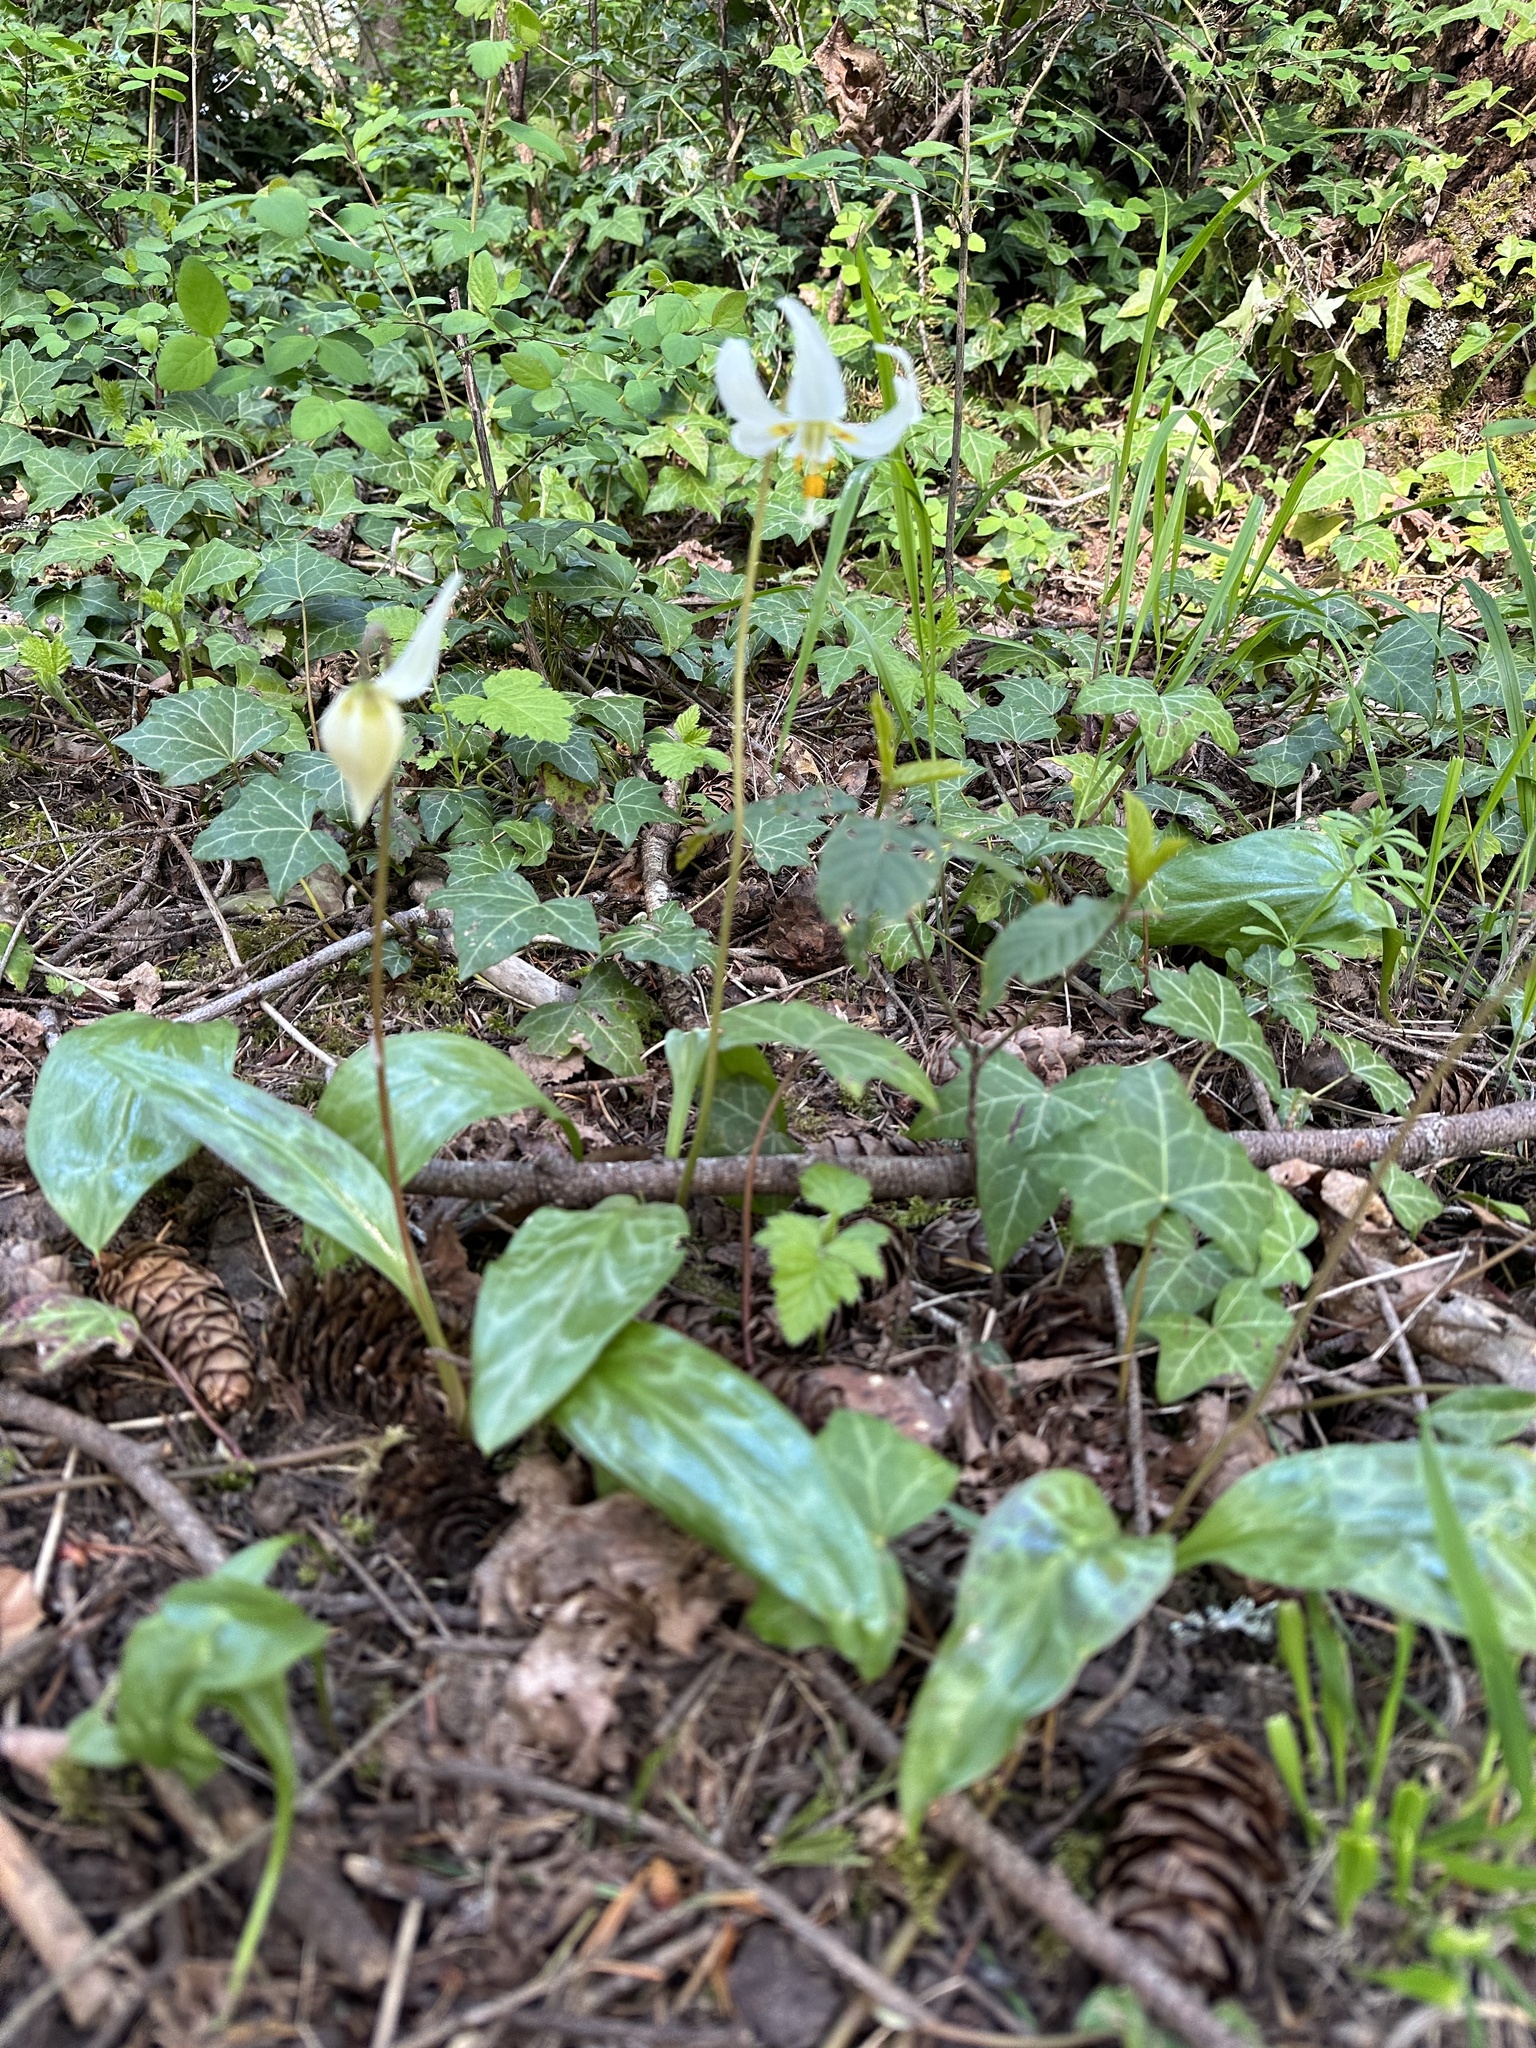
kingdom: Plantae
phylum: Tracheophyta
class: Liliopsida
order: Liliales
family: Liliaceae
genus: Erythronium
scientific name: Erythronium oregonum
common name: Giant adder's-tongue
